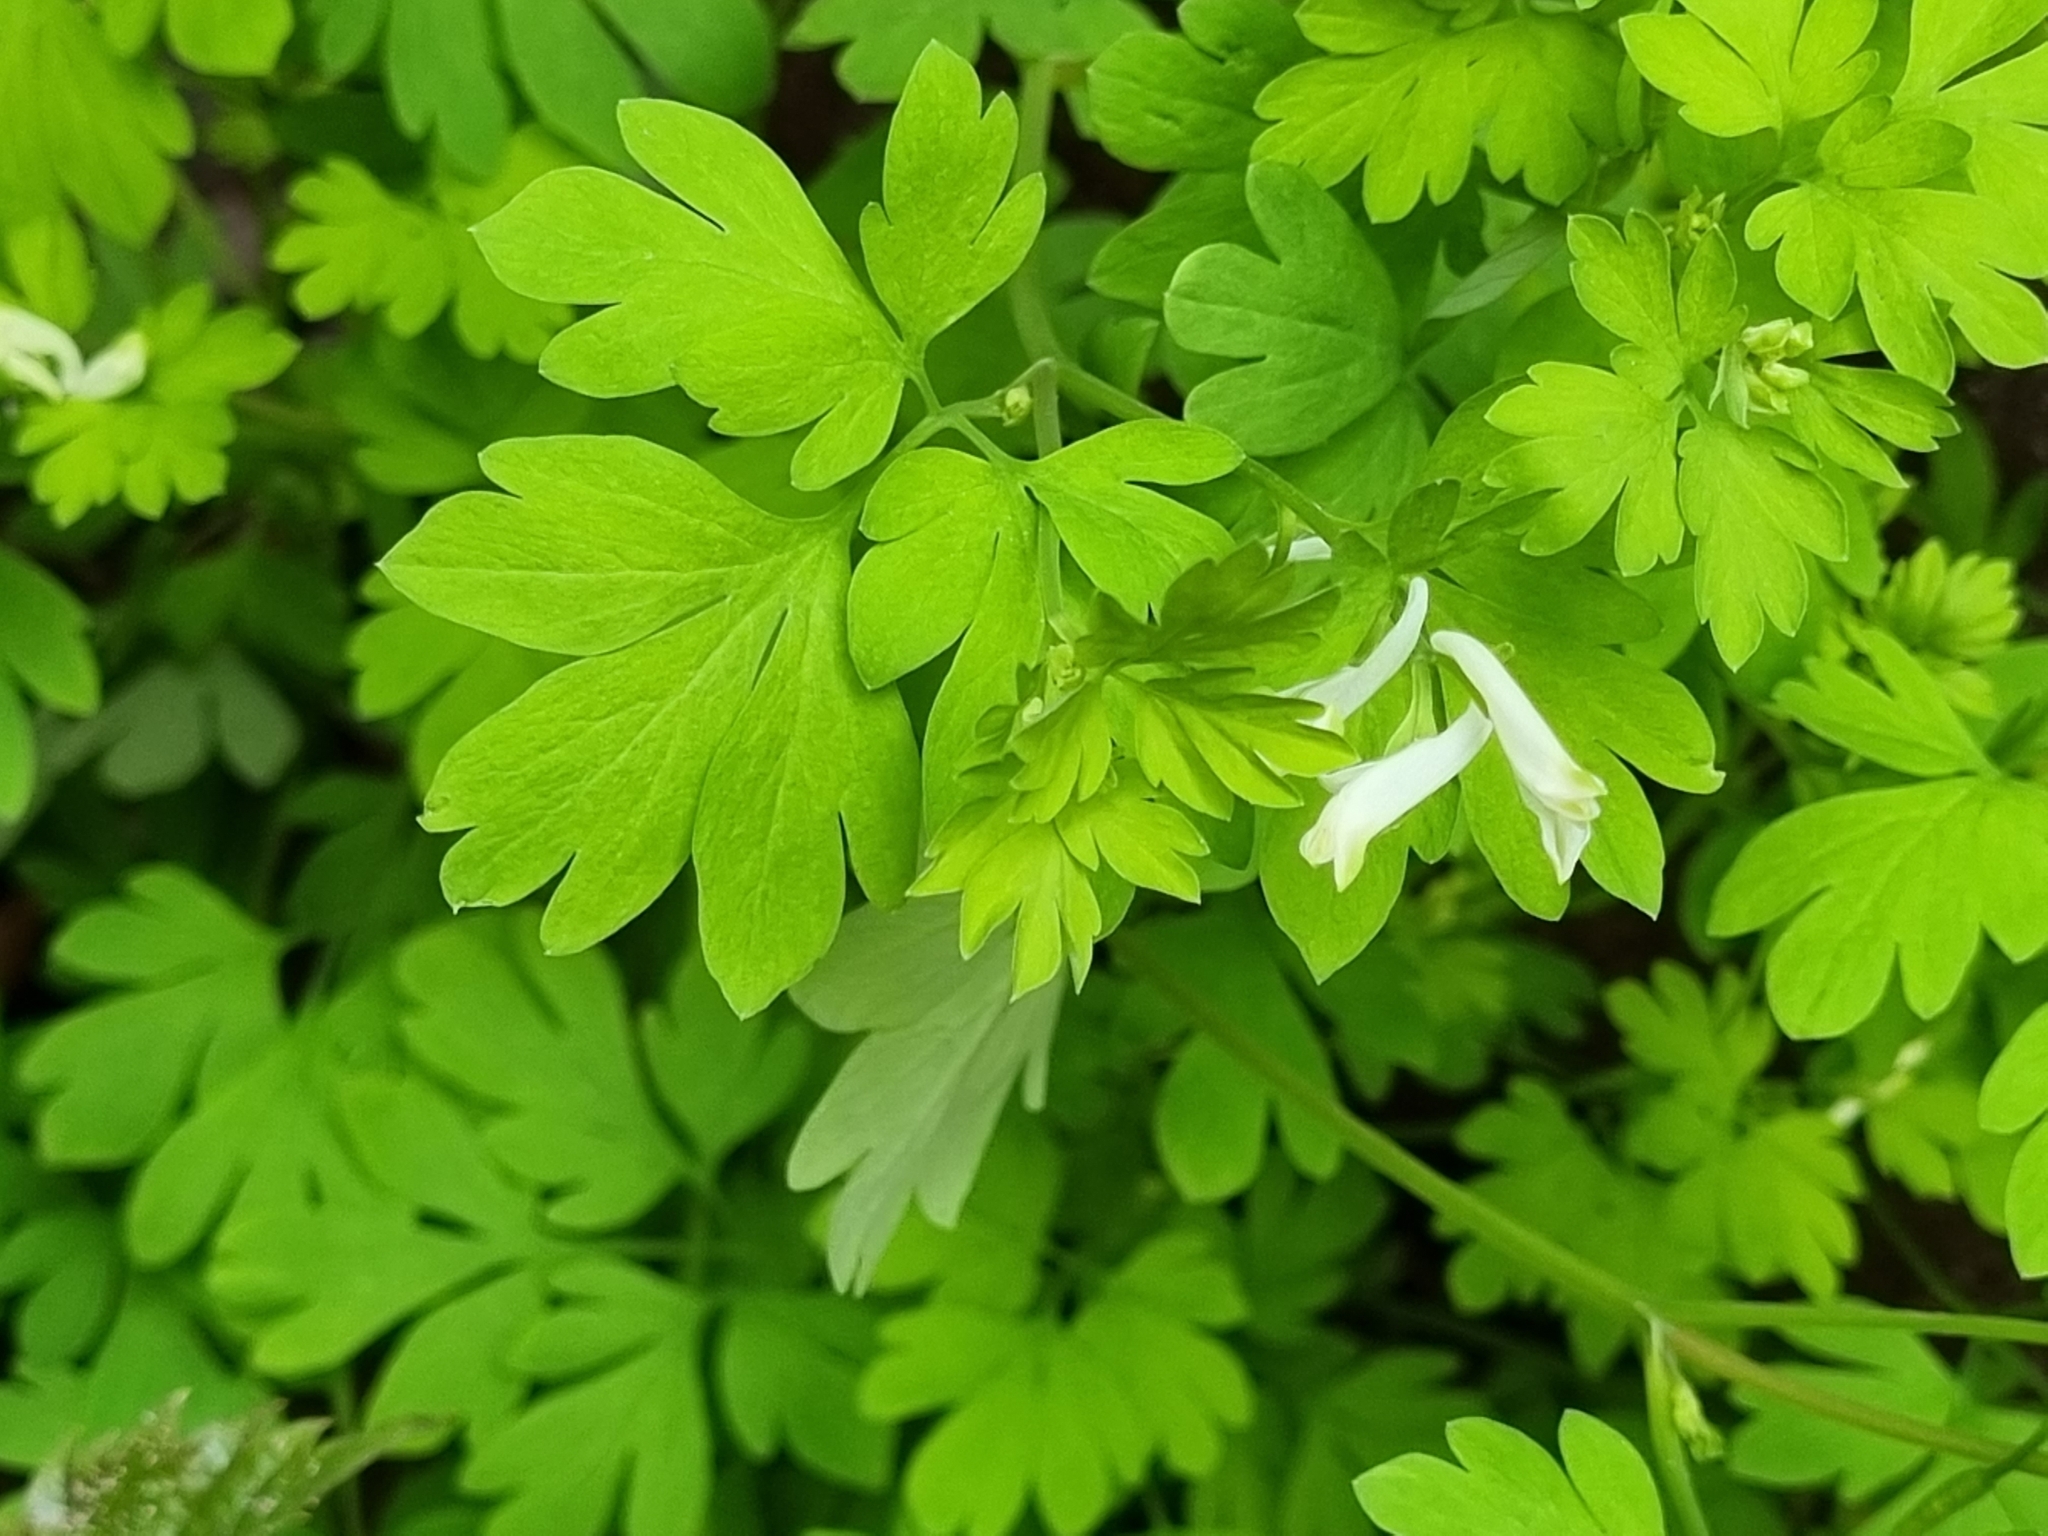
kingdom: Plantae
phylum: Tracheophyta
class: Magnoliopsida
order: Ranunculales
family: Papaveraceae
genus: Pseudofumaria
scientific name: Pseudofumaria alba
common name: Pale corydalis
